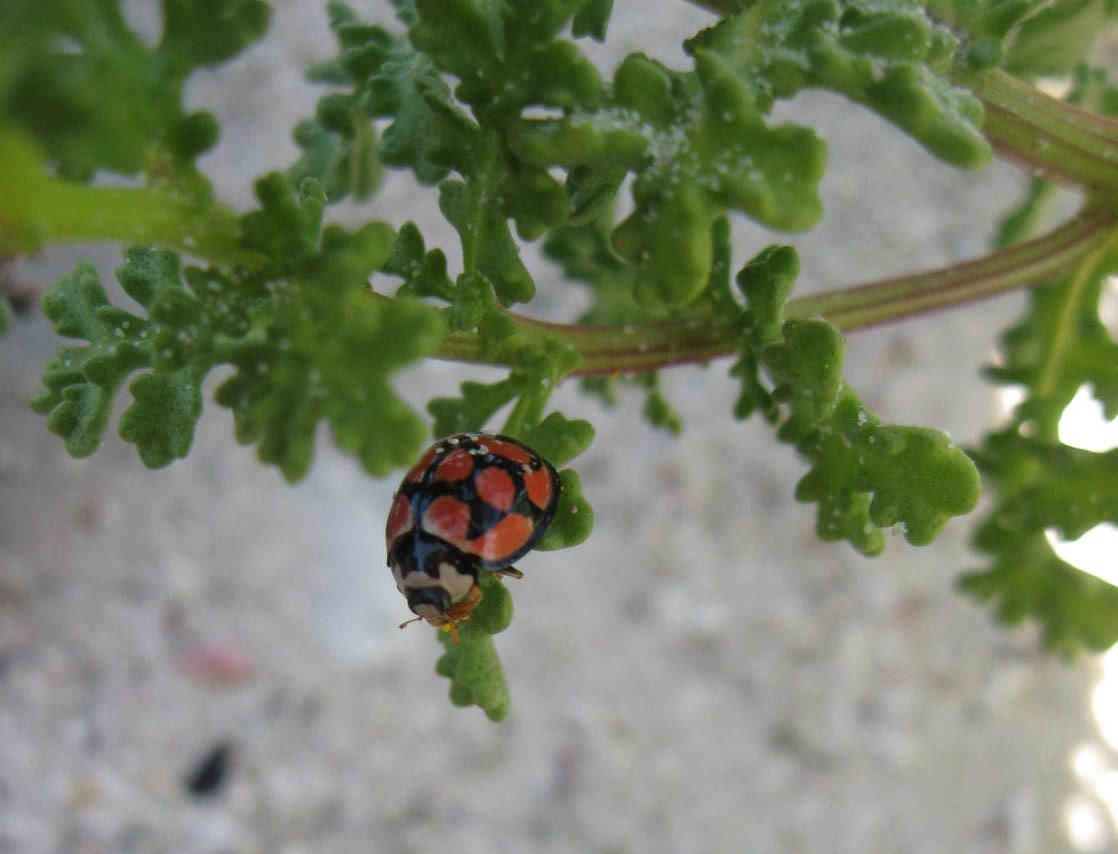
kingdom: Animalia
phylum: Arthropoda
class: Insecta
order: Coleoptera
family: Coccinellidae
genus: Cheilomenes
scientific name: Cheilomenes lunata
